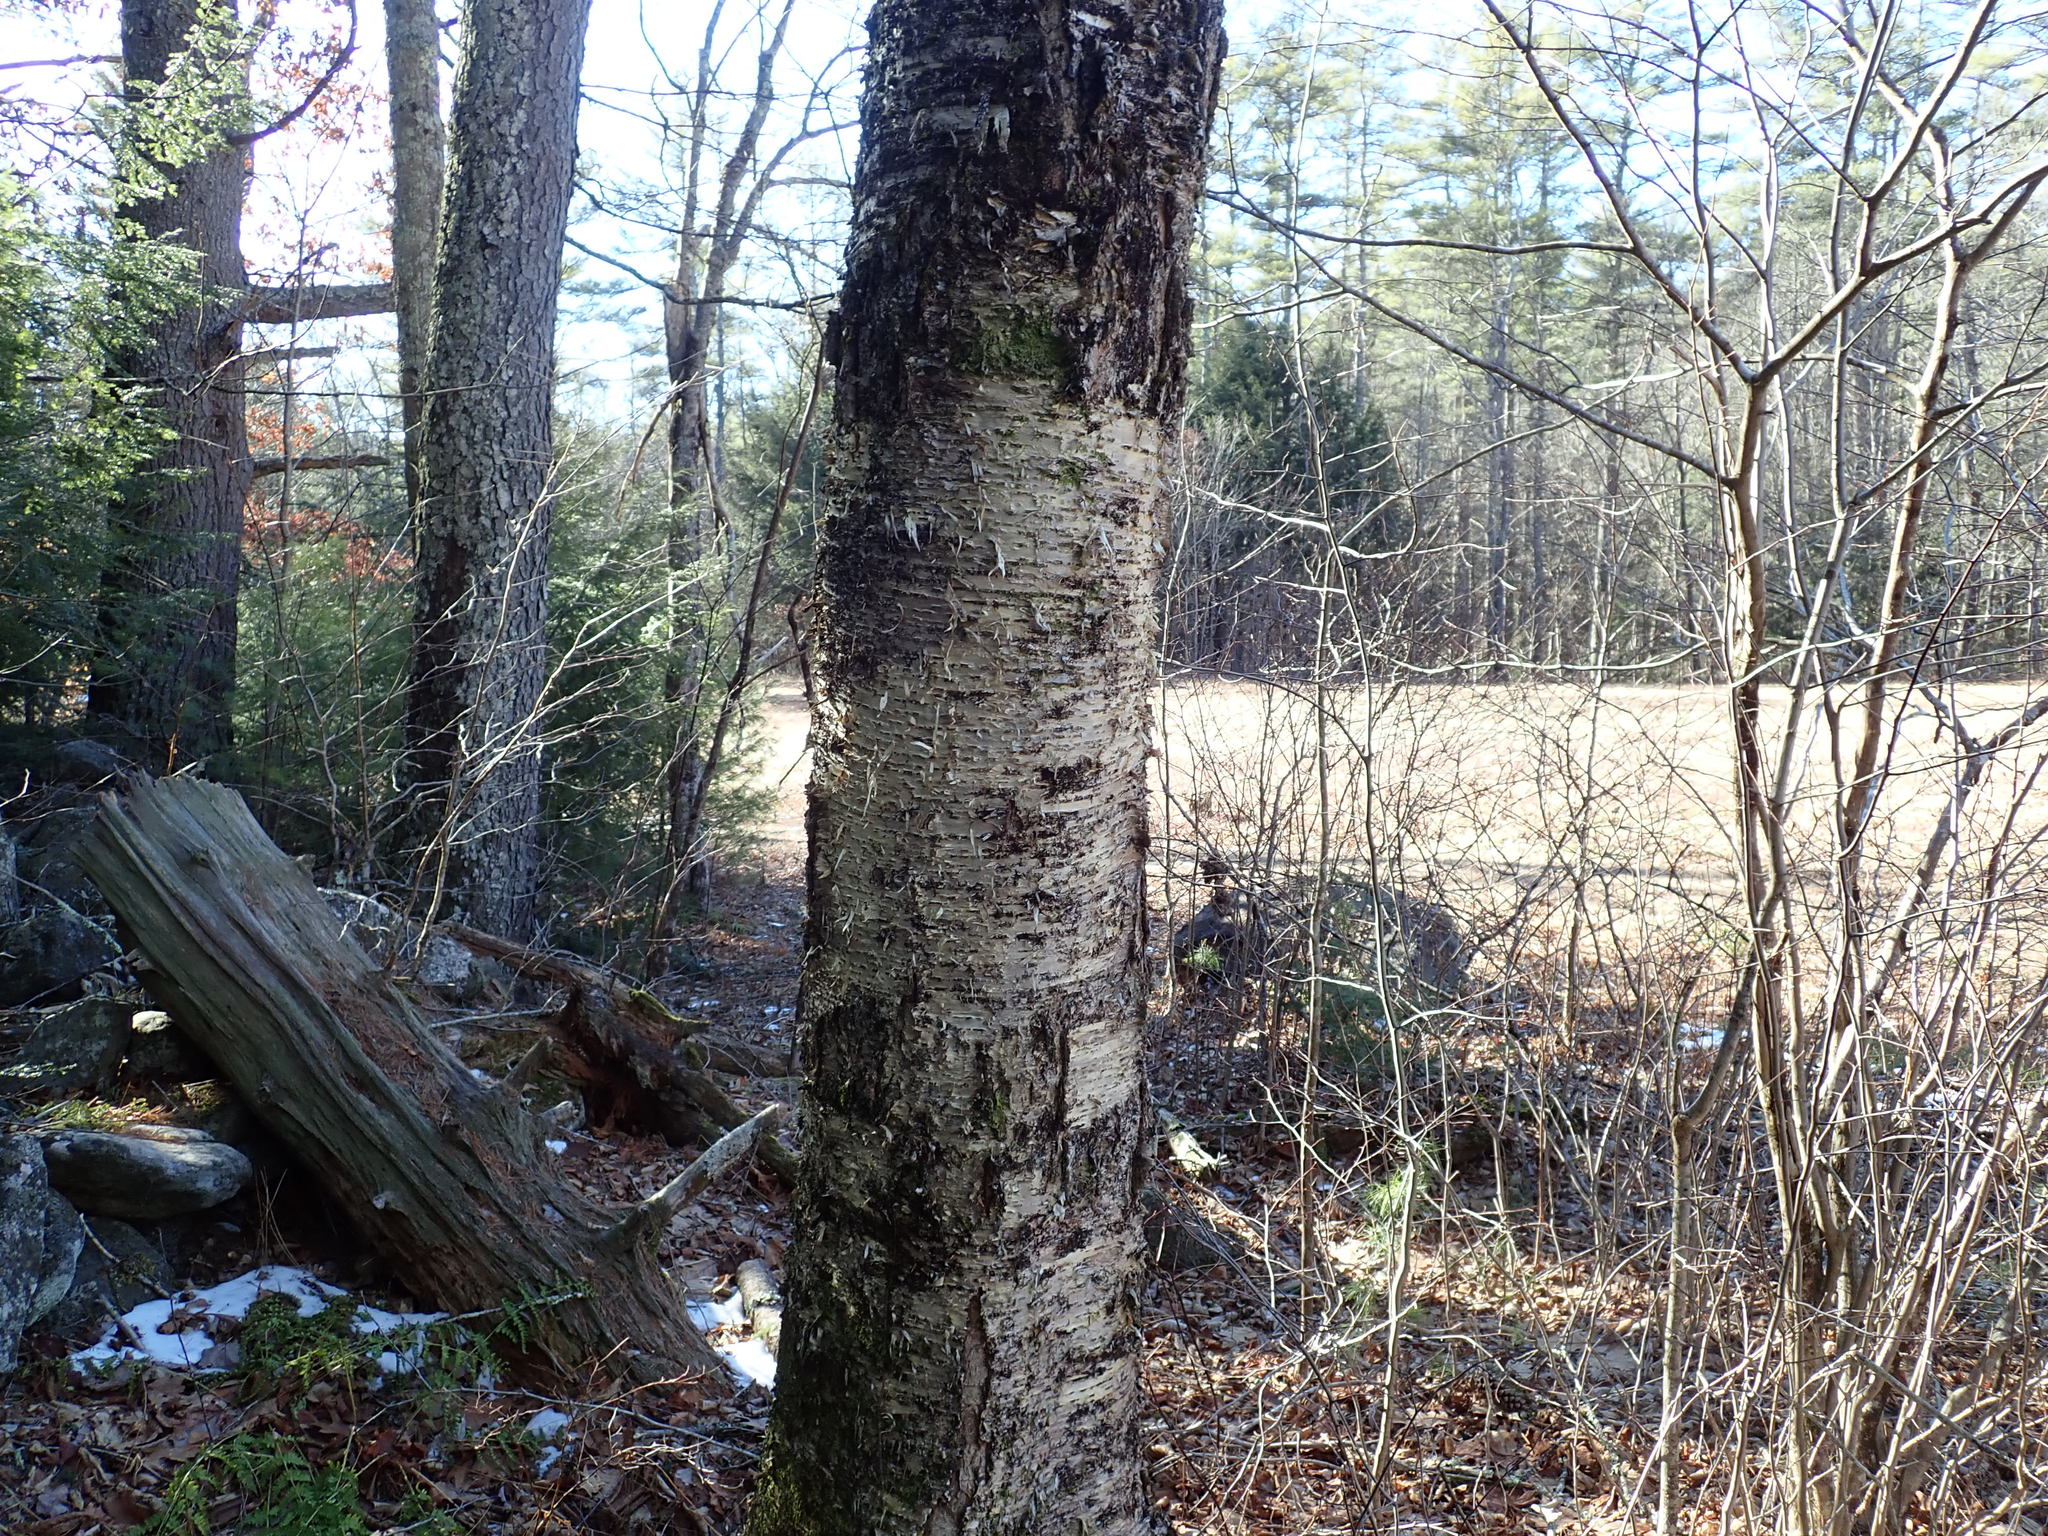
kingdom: Plantae
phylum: Tracheophyta
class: Magnoliopsida
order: Fagales
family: Betulaceae
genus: Betula
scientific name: Betula alleghaniensis
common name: Yellow birch
